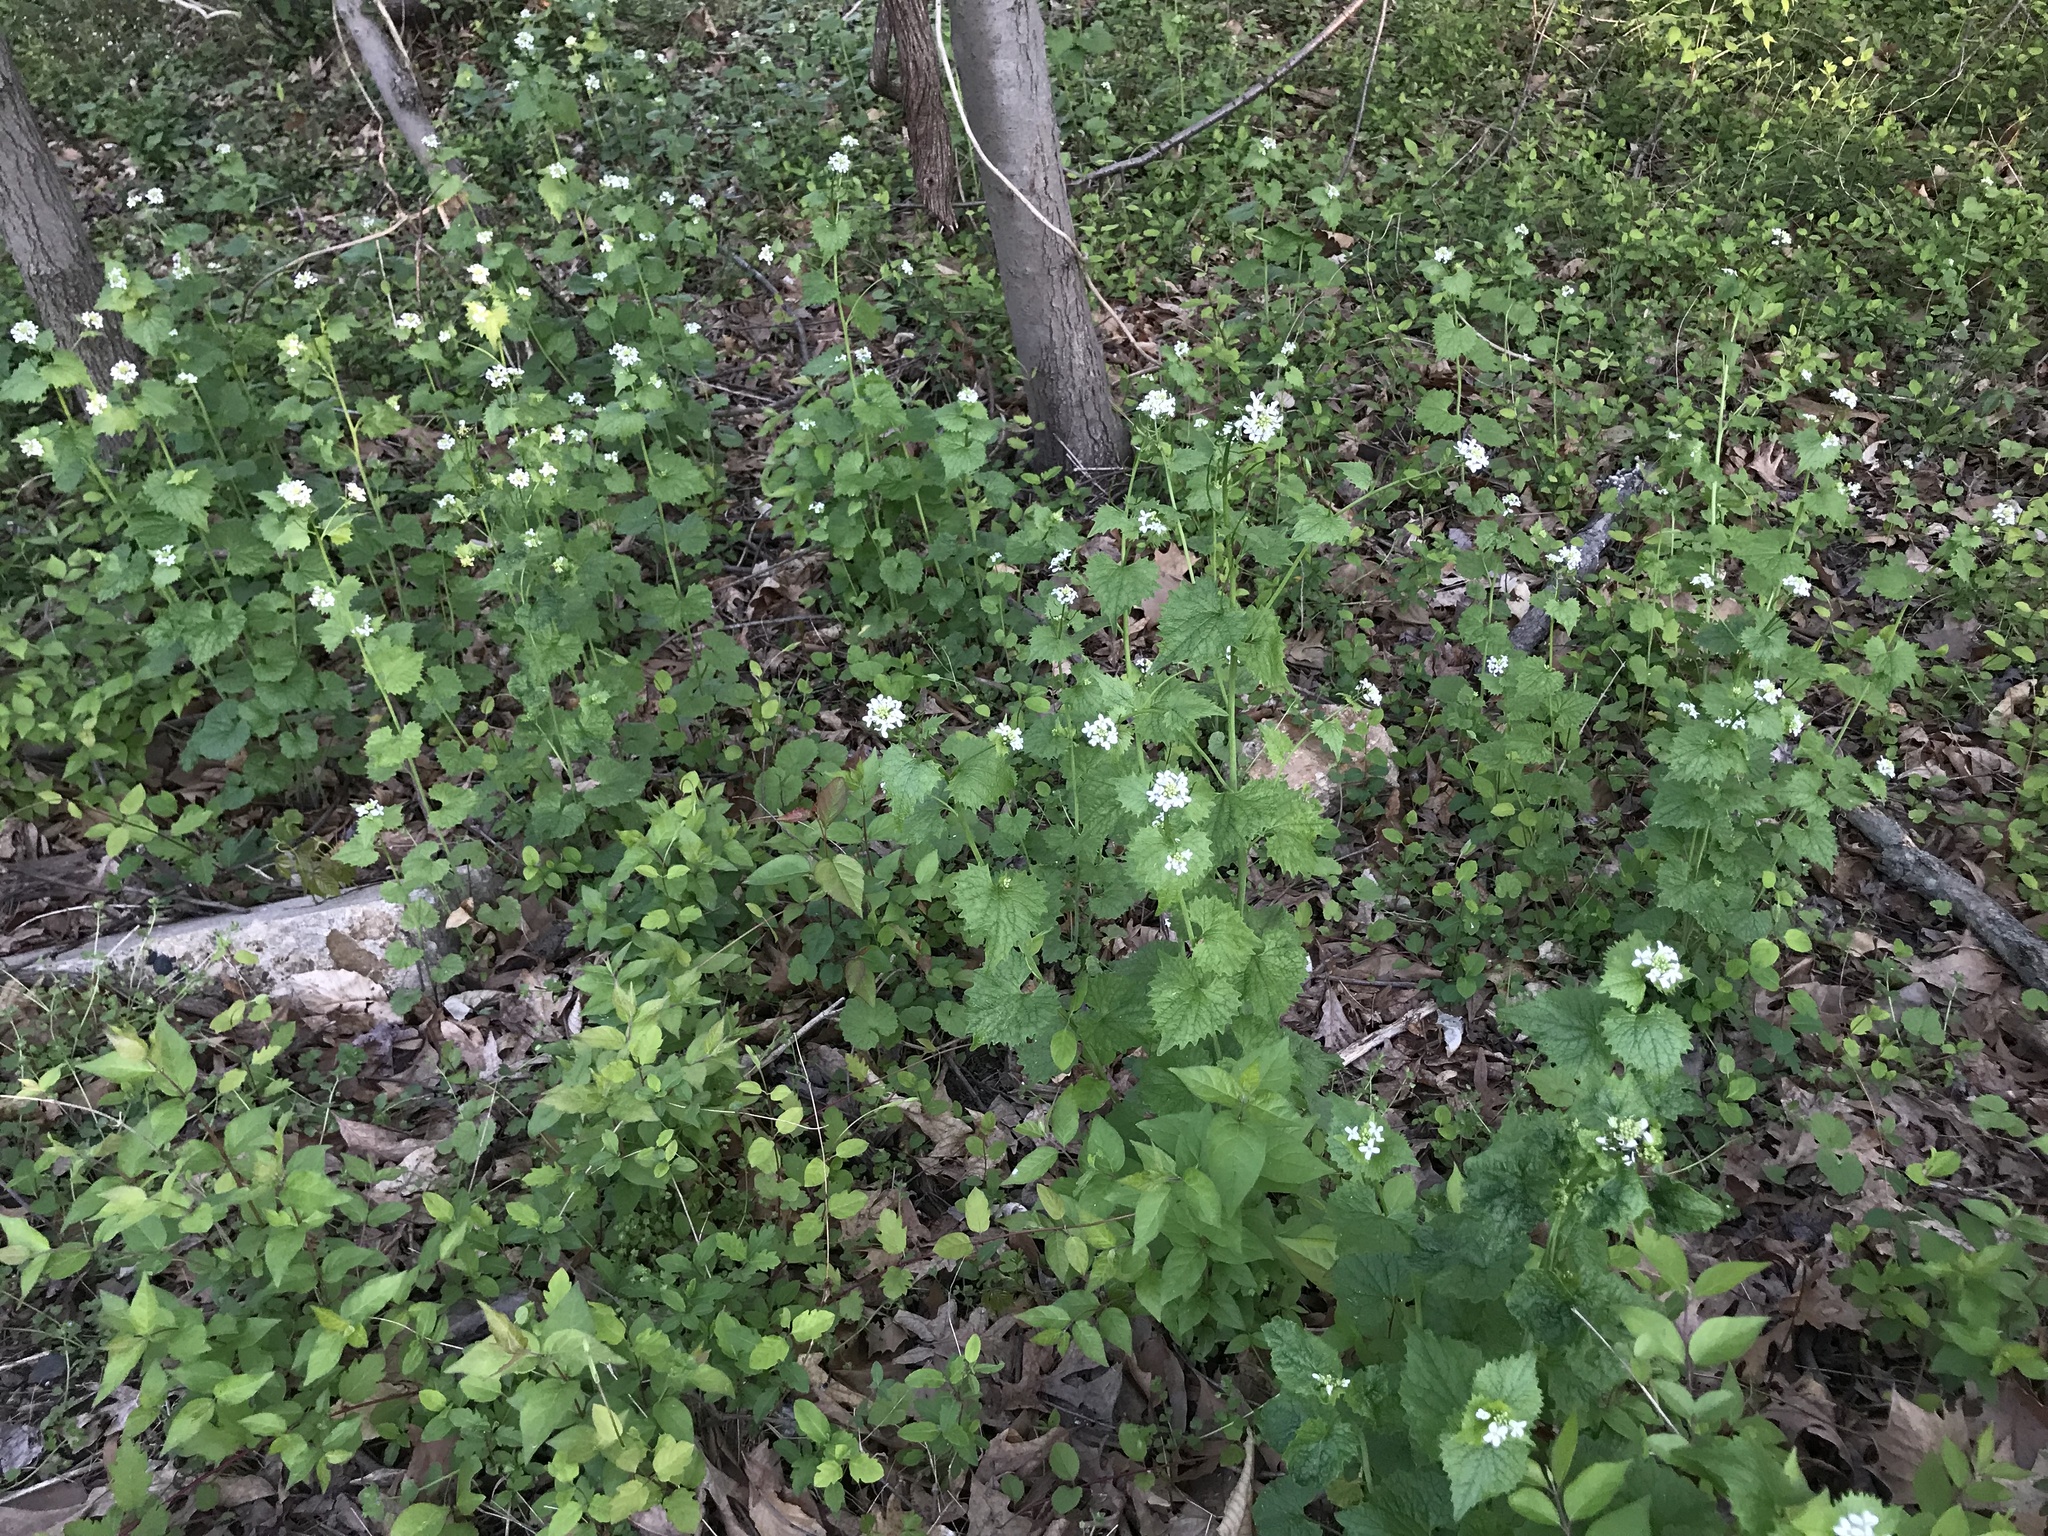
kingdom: Plantae
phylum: Tracheophyta
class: Magnoliopsida
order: Brassicales
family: Brassicaceae
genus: Alliaria
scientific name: Alliaria petiolata
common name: Garlic mustard
